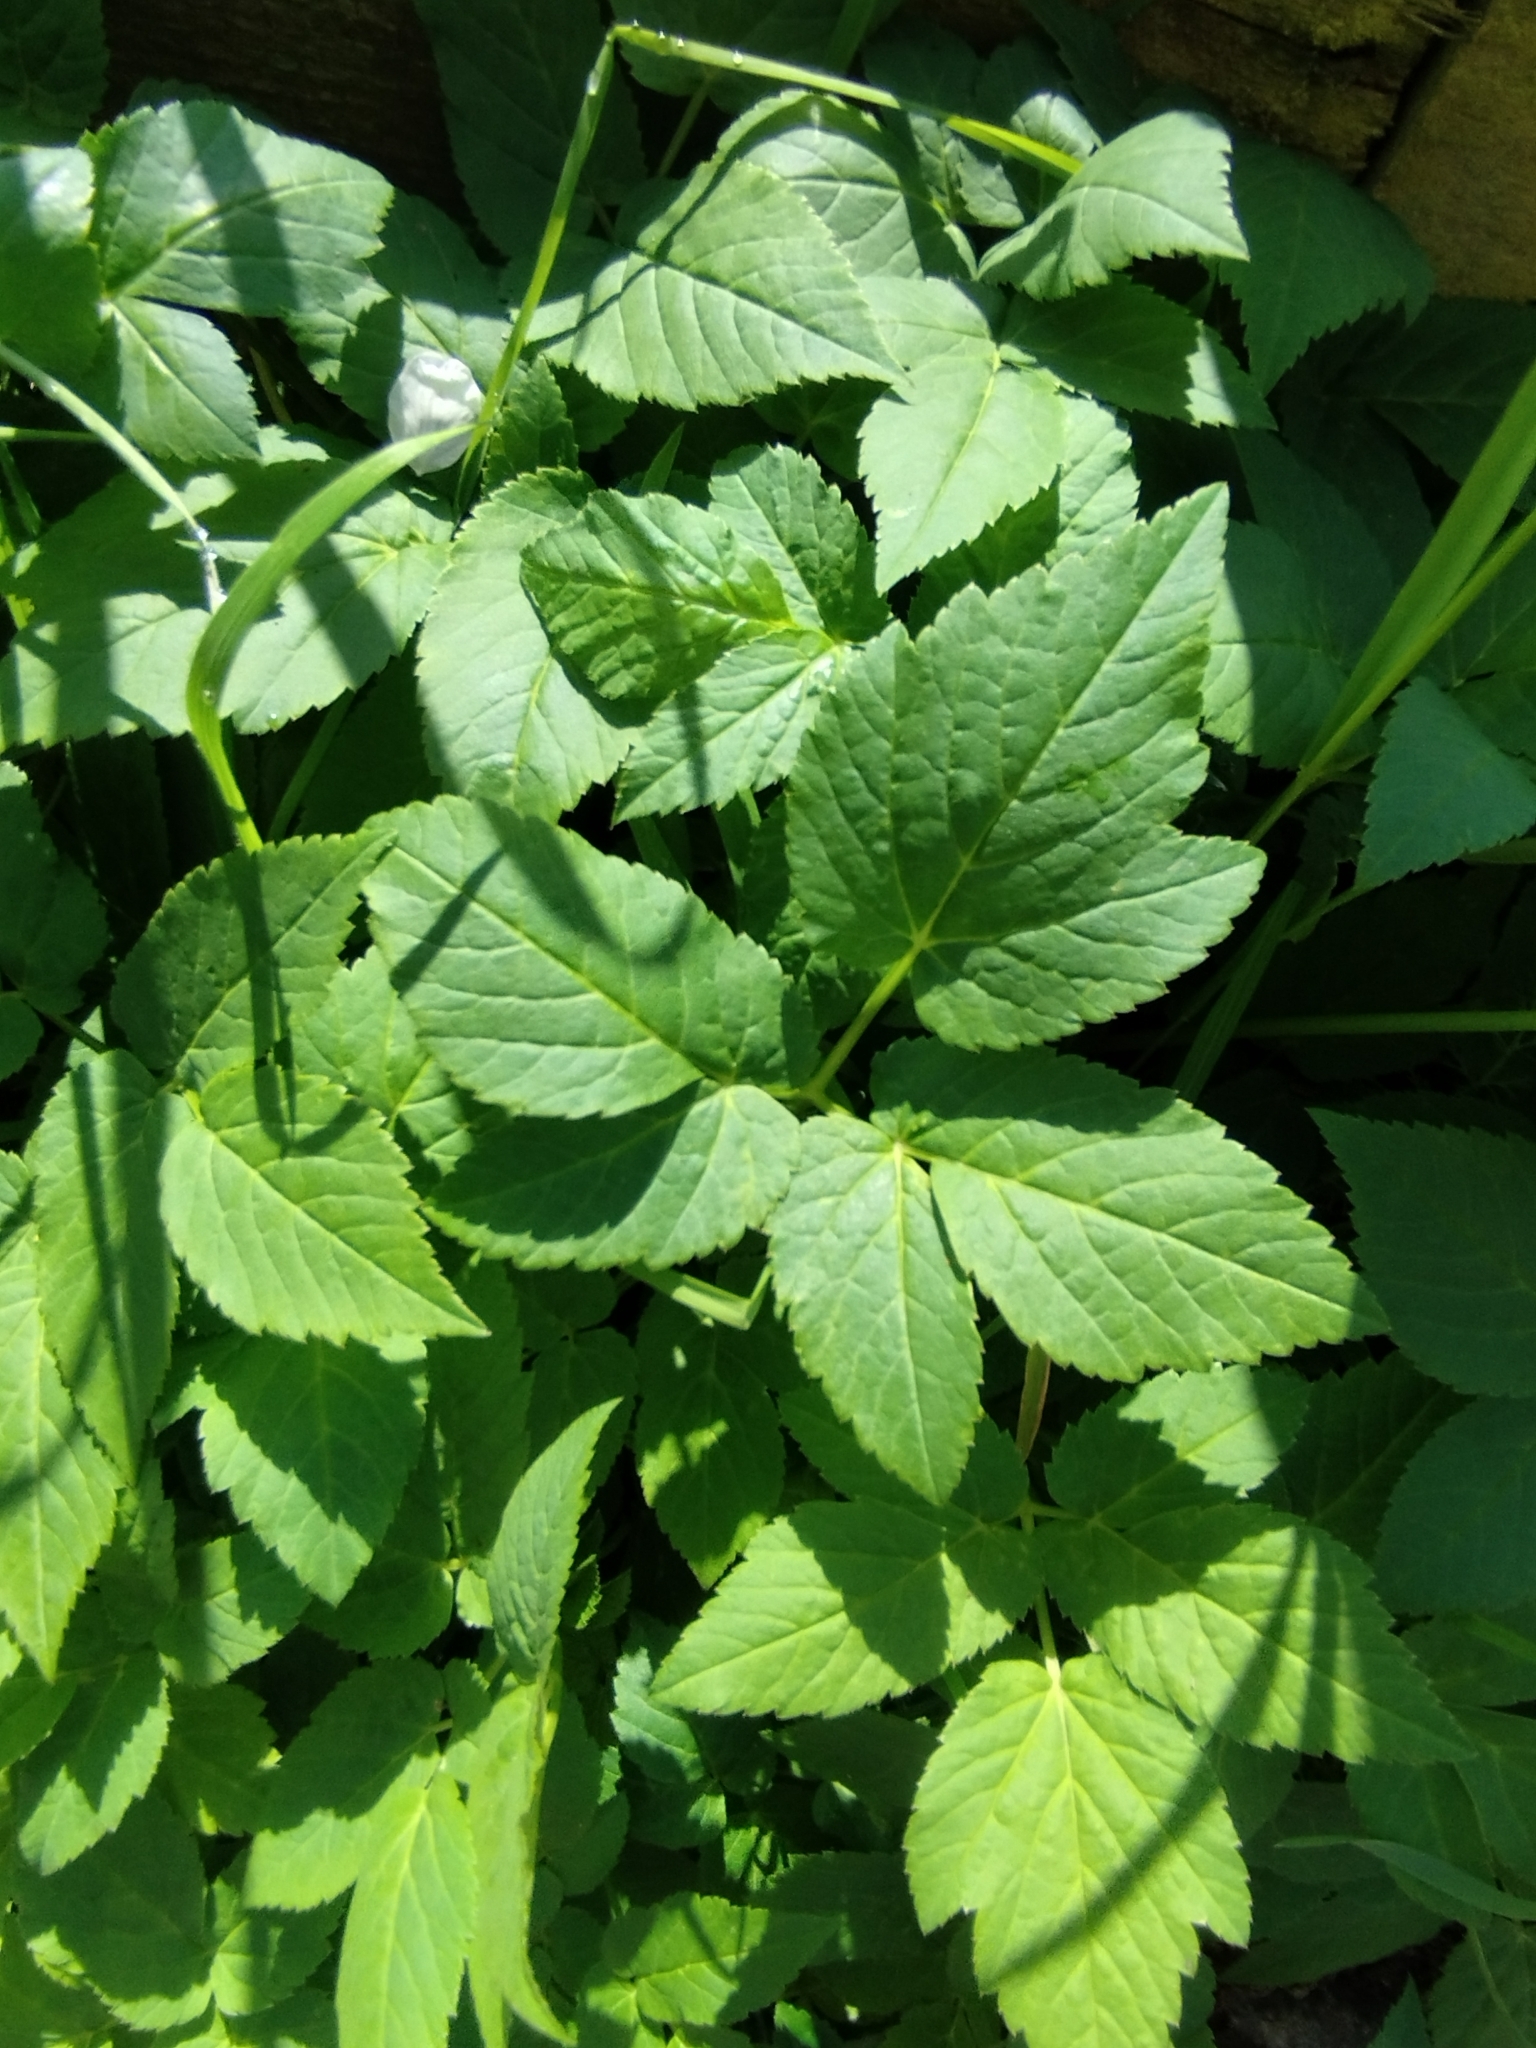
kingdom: Plantae
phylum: Tracheophyta
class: Magnoliopsida
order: Apiales
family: Apiaceae
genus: Aegopodium
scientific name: Aegopodium podagraria
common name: Ground-elder
